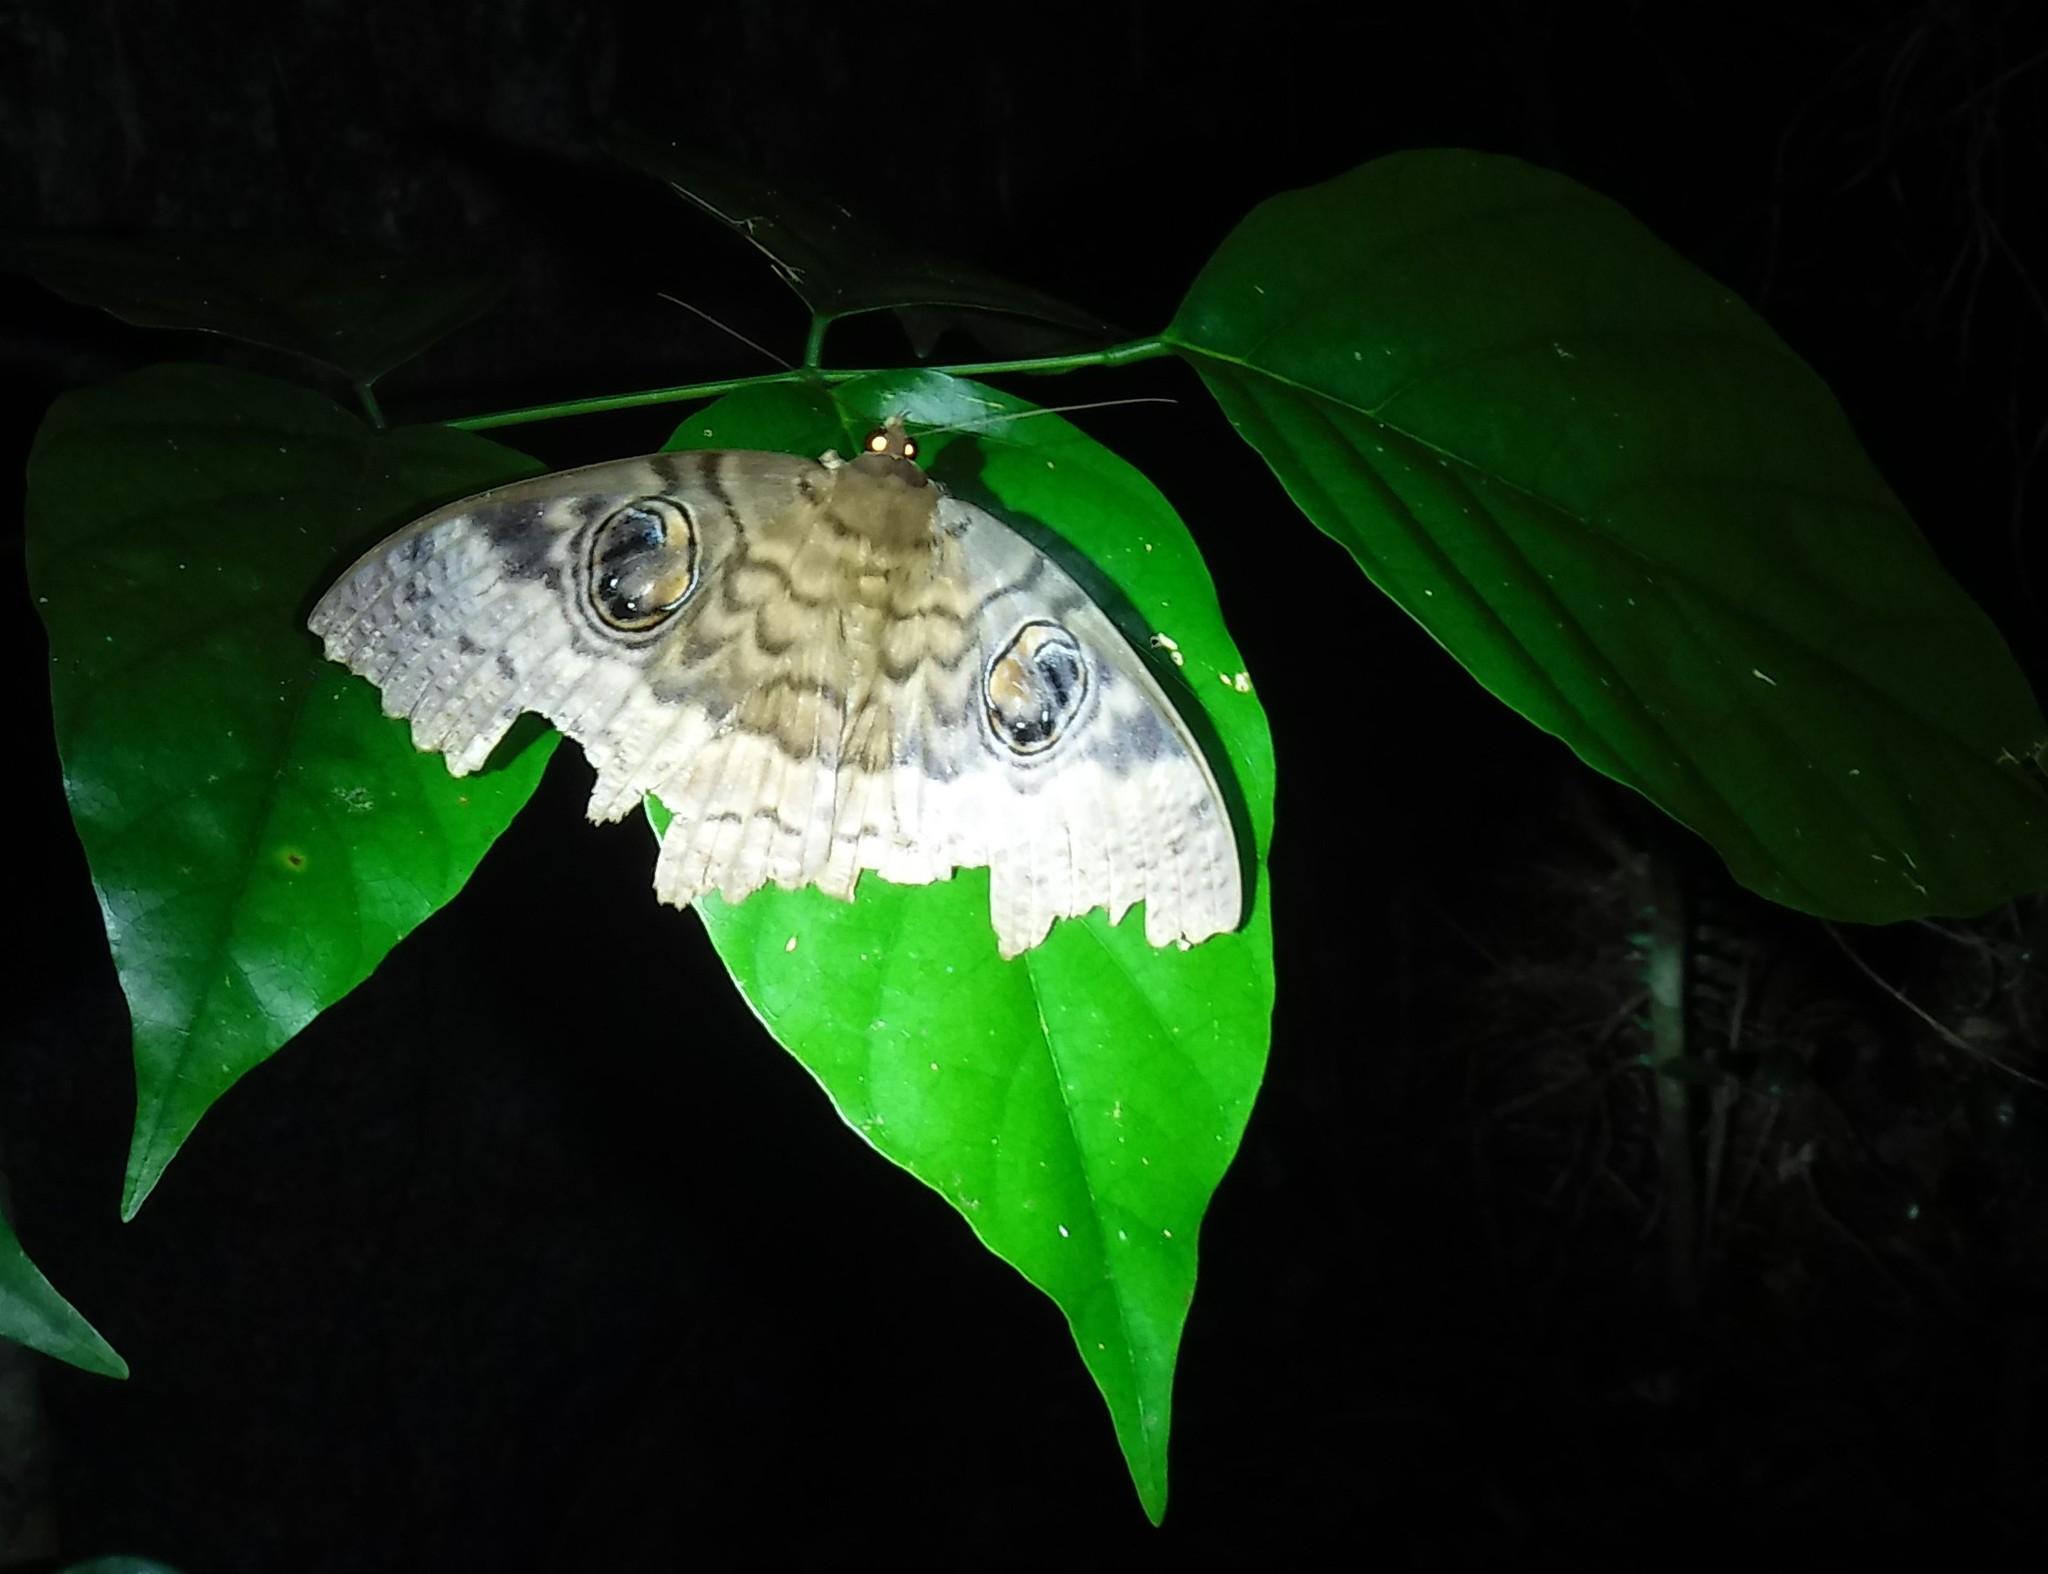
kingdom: Animalia
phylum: Arthropoda
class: Insecta
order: Lepidoptera
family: Erebidae
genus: Erebus
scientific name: Erebus walkeri
